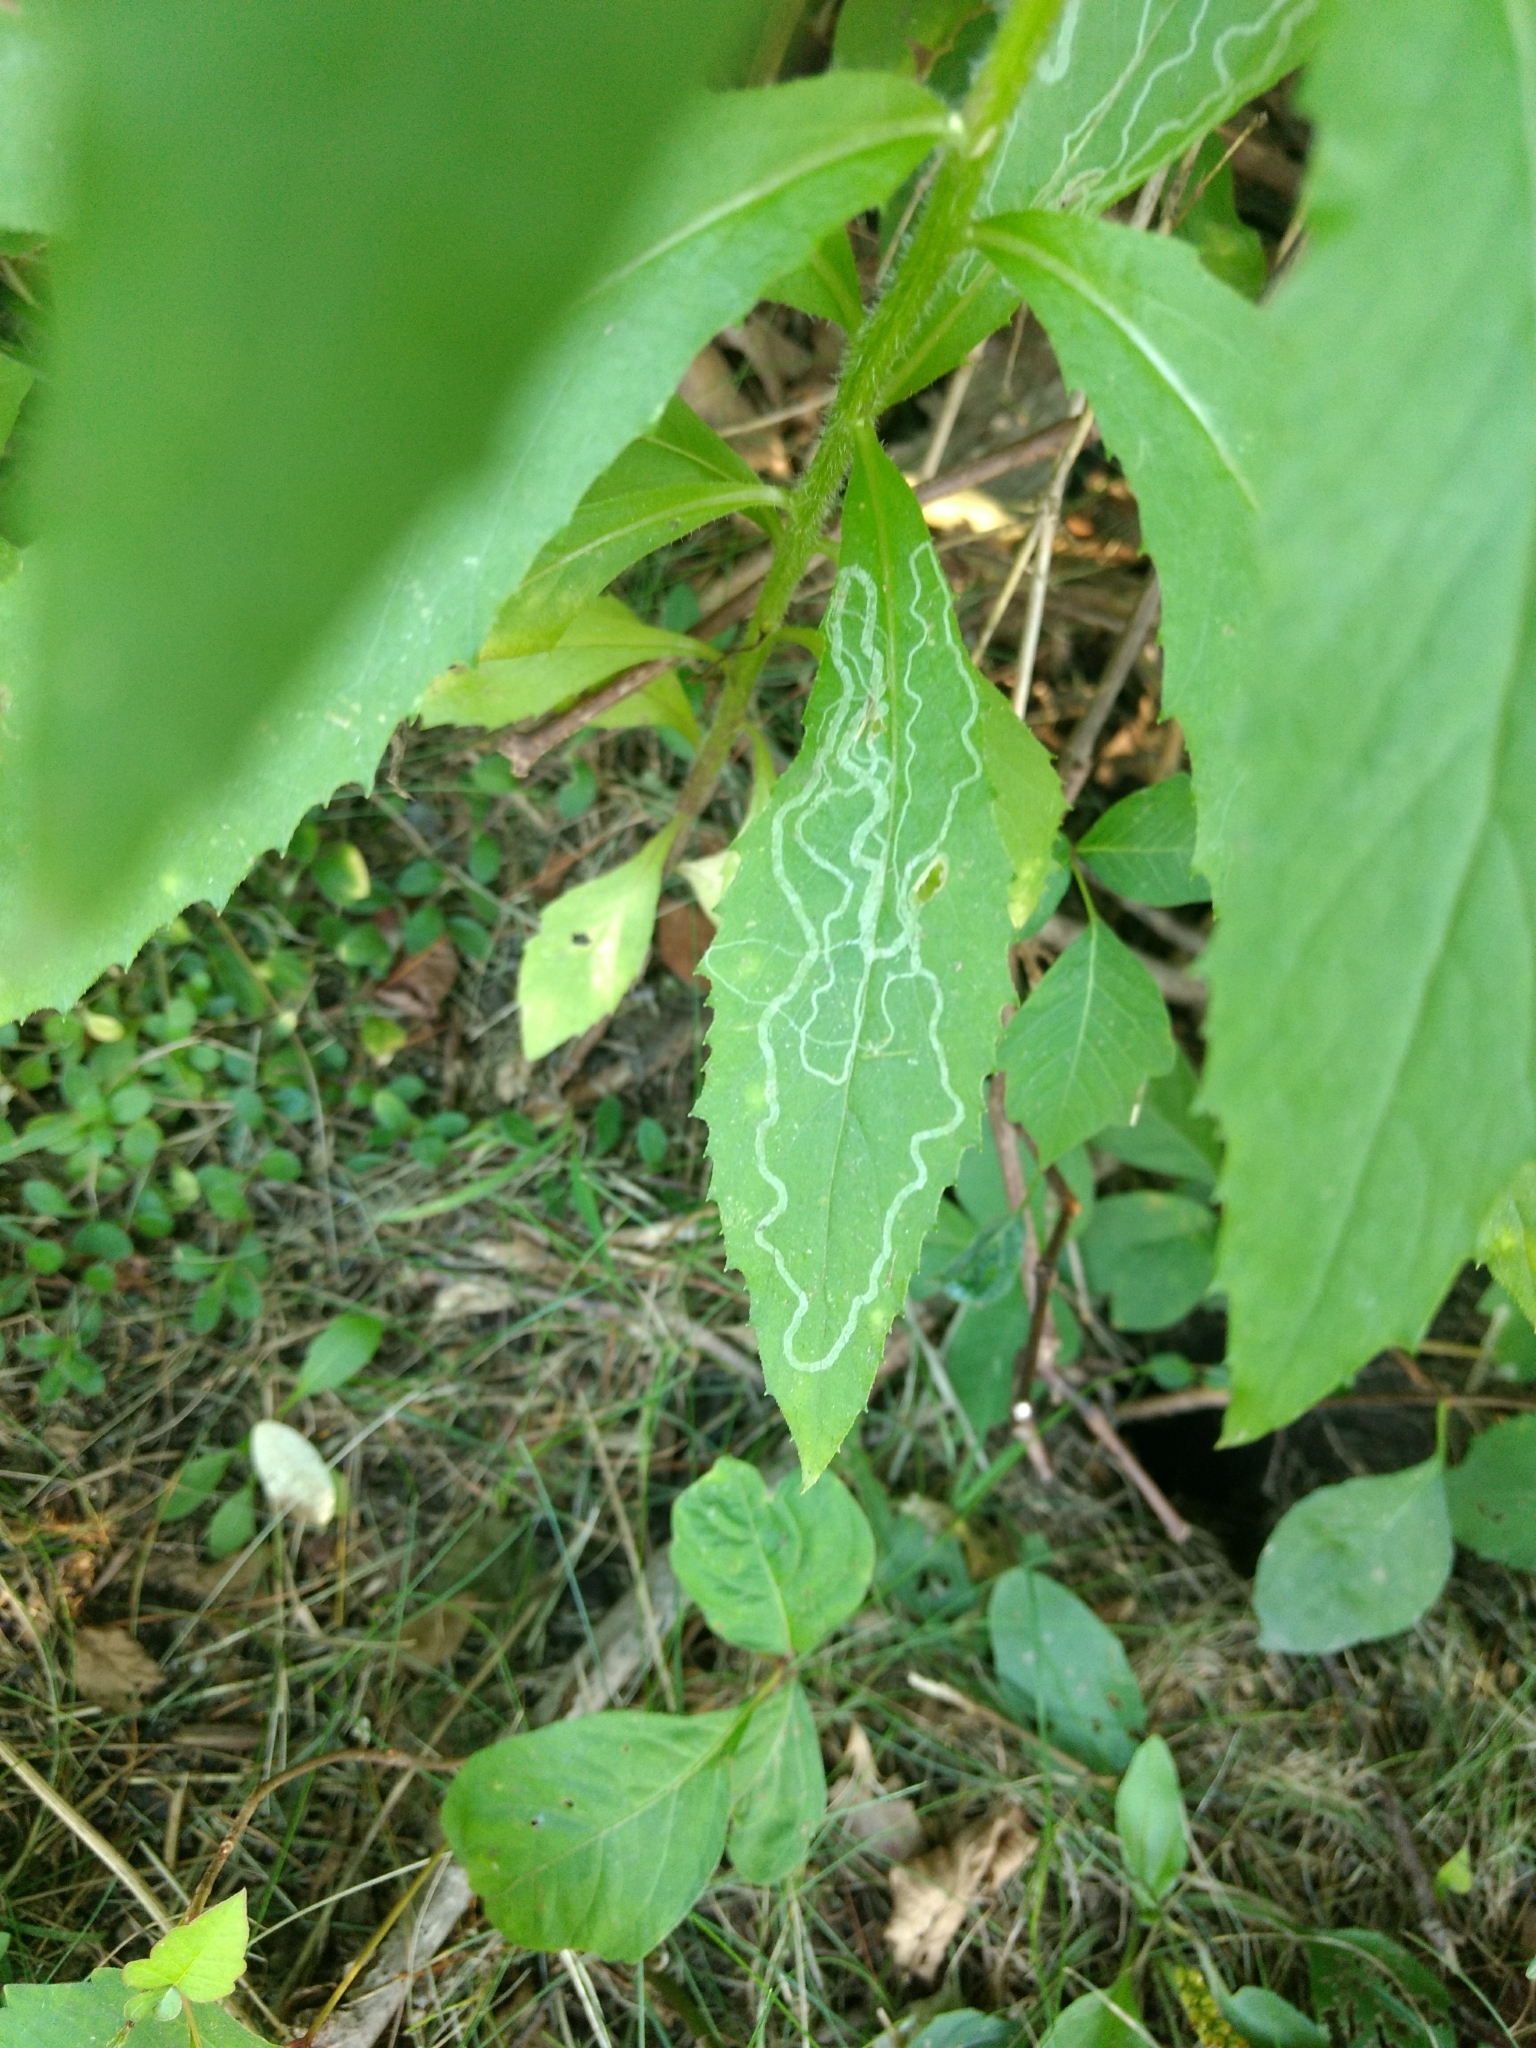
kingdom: Animalia
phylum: Arthropoda
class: Insecta
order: Lepidoptera
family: Gracillariidae
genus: Phyllocnistis
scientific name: Phyllocnistis insignis
